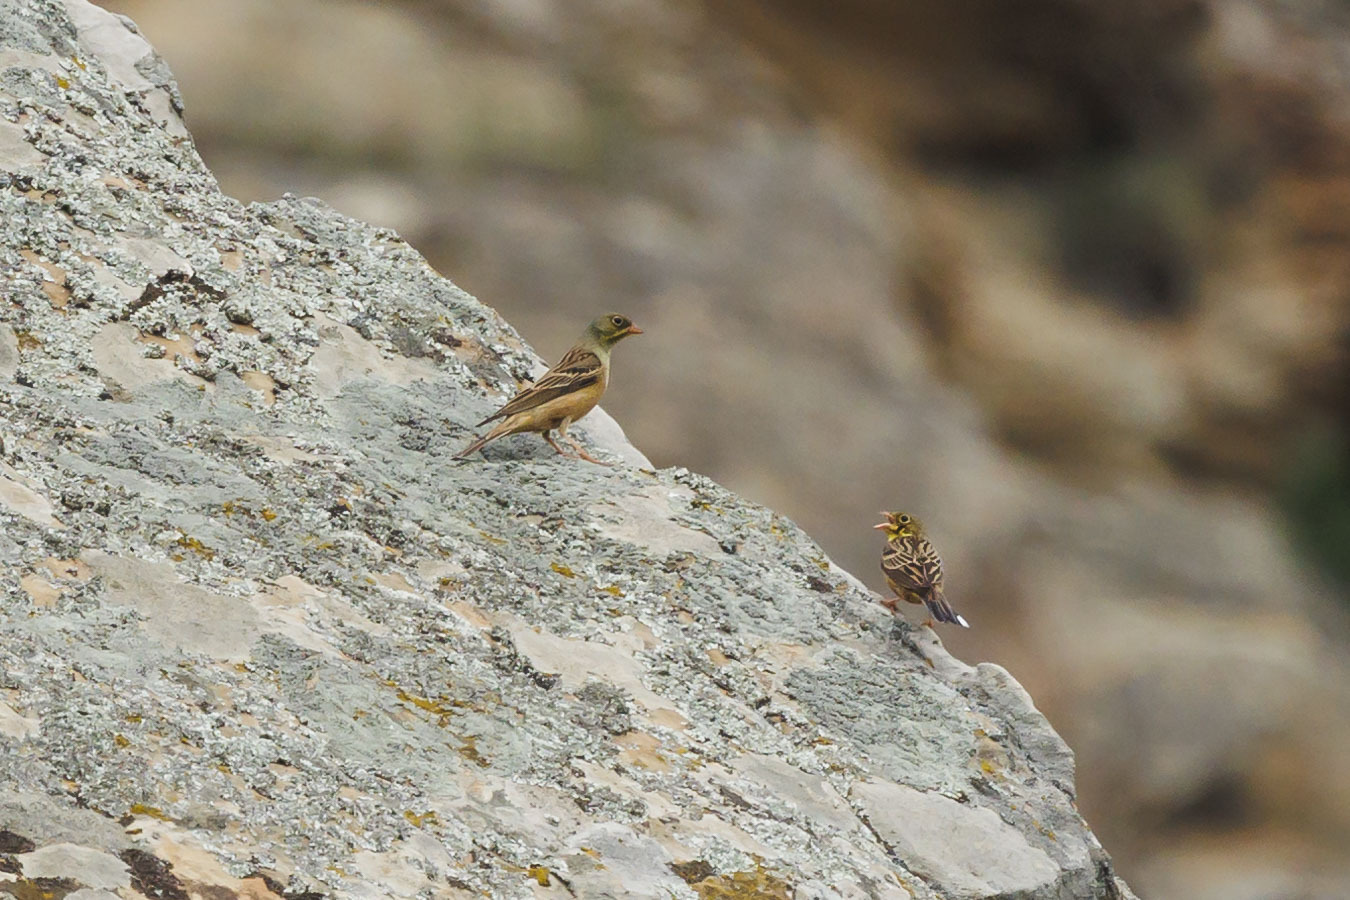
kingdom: Animalia
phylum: Chordata
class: Aves
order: Passeriformes
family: Emberizidae
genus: Emberiza
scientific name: Emberiza hortulana
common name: Ortolan bunting
